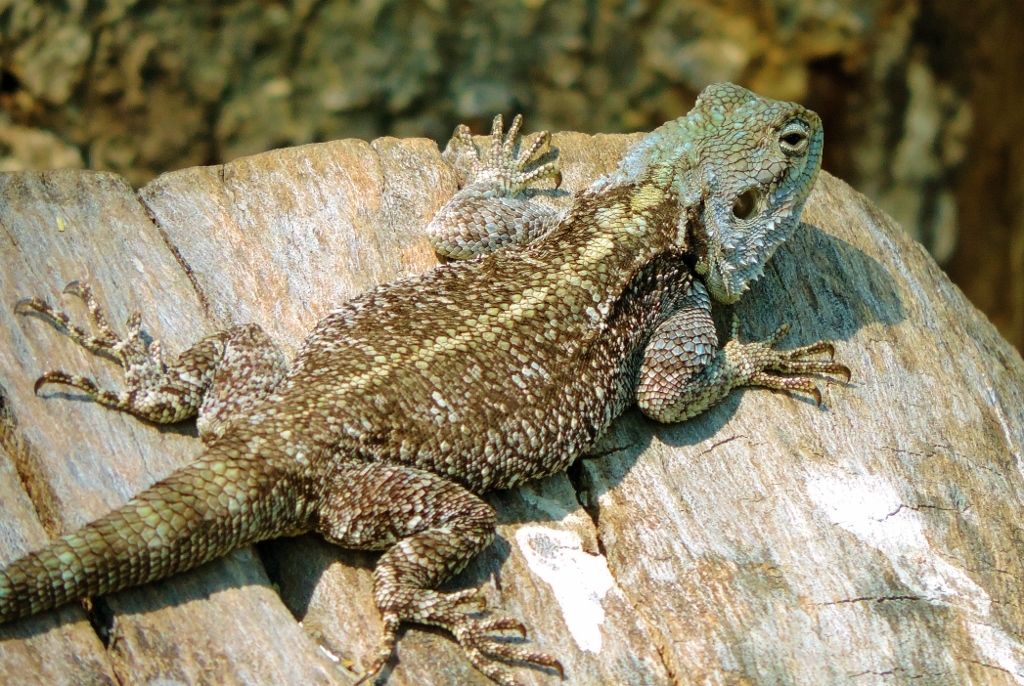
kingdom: Animalia
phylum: Chordata
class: Squamata
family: Agamidae
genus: Acanthocercus
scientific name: Acanthocercus atricollis
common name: Southern tree agama
